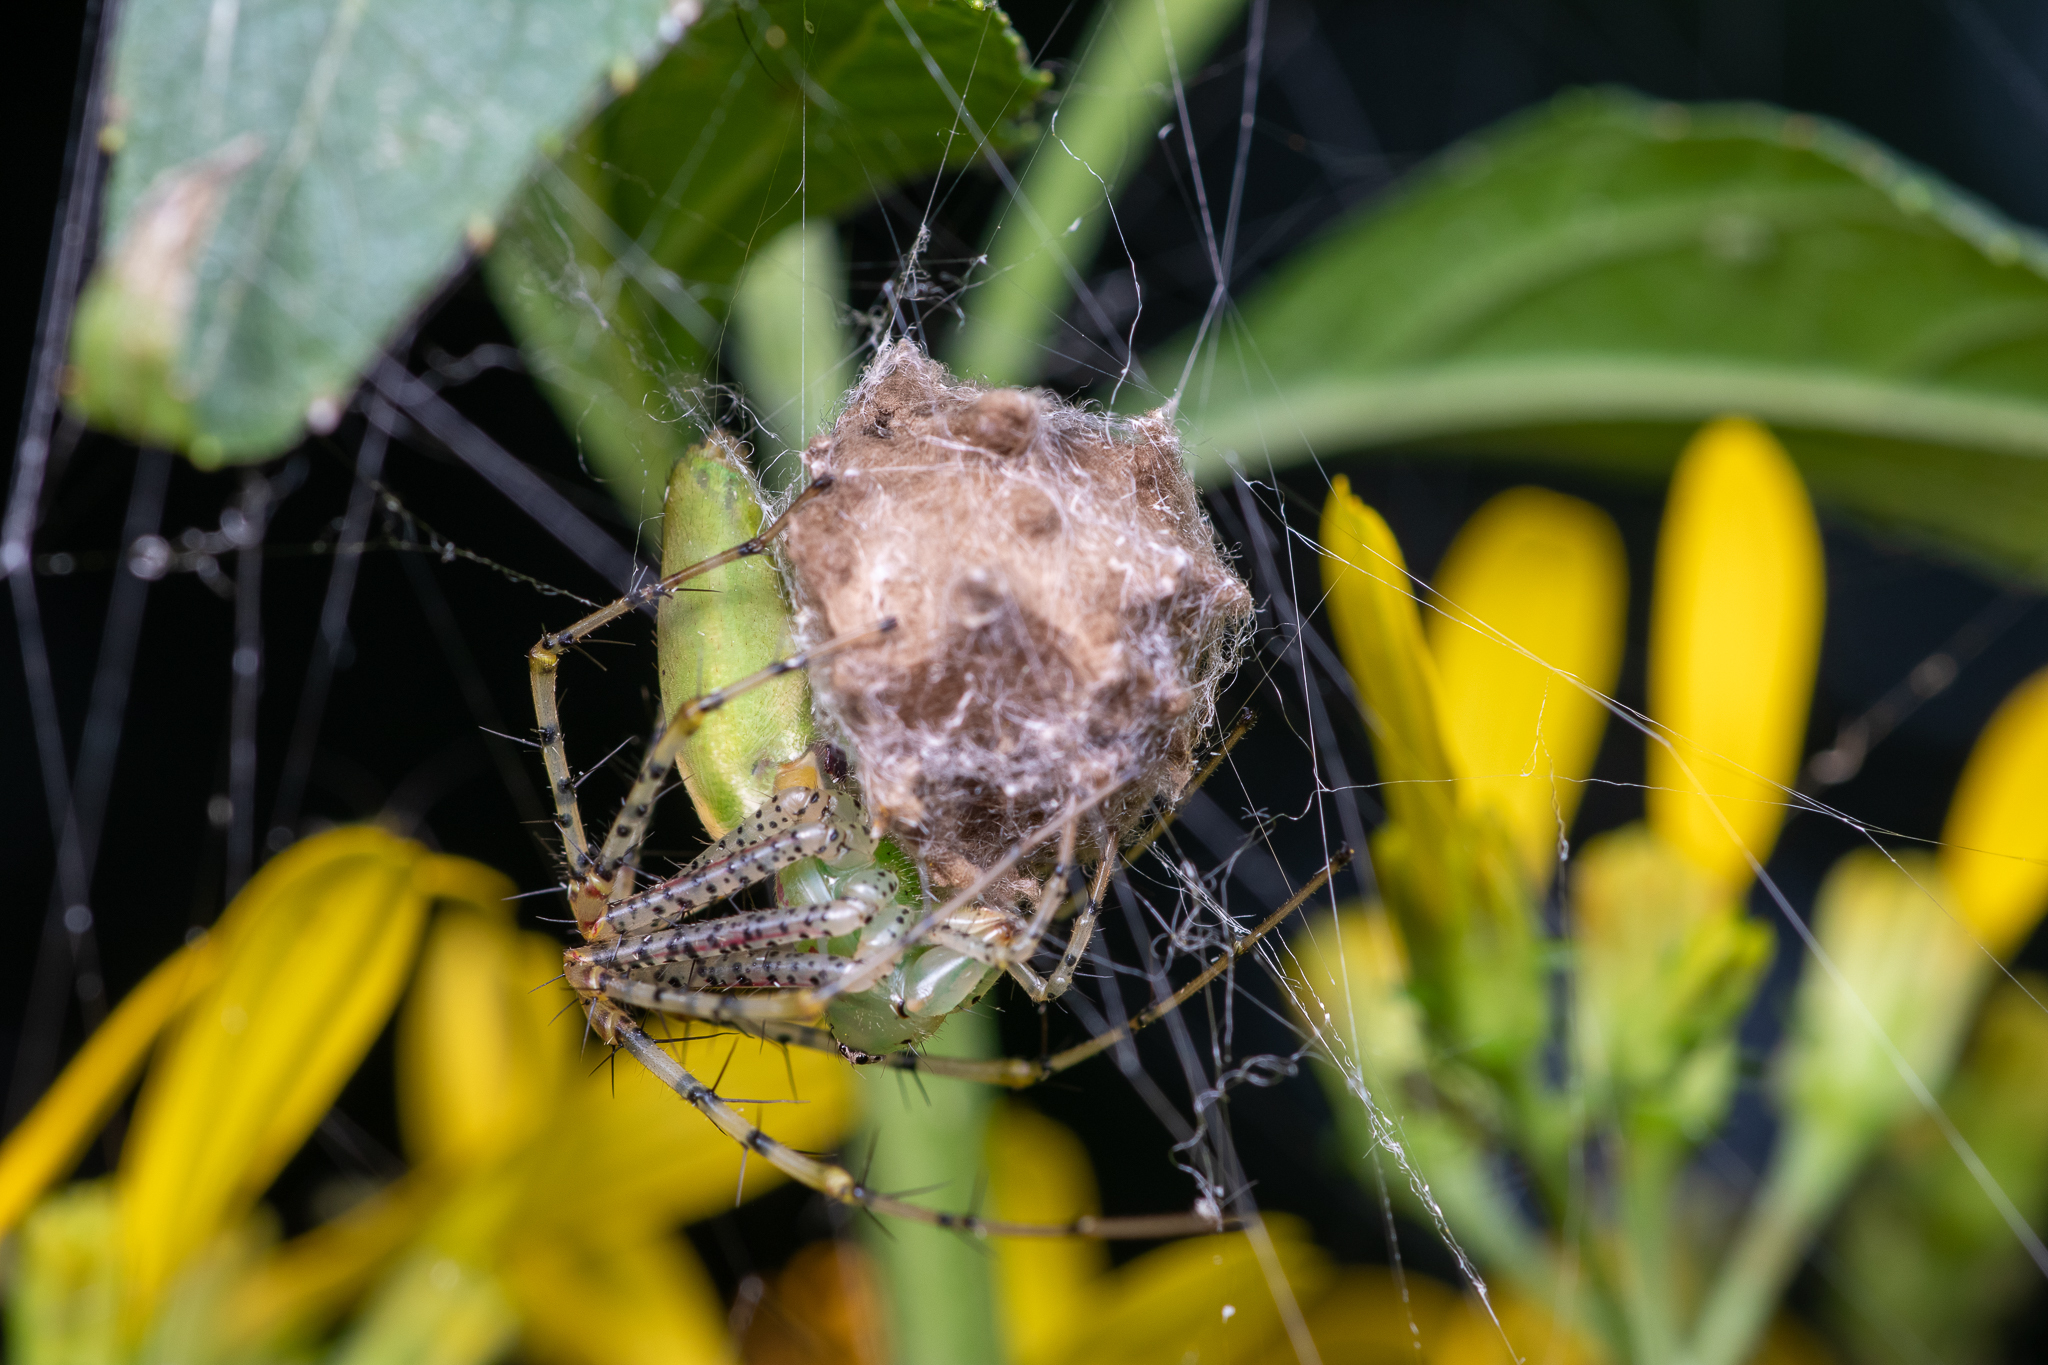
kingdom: Animalia
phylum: Arthropoda
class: Arachnida
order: Araneae
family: Oxyopidae
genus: Peucetia
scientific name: Peucetia viridans
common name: Lynx spiders
